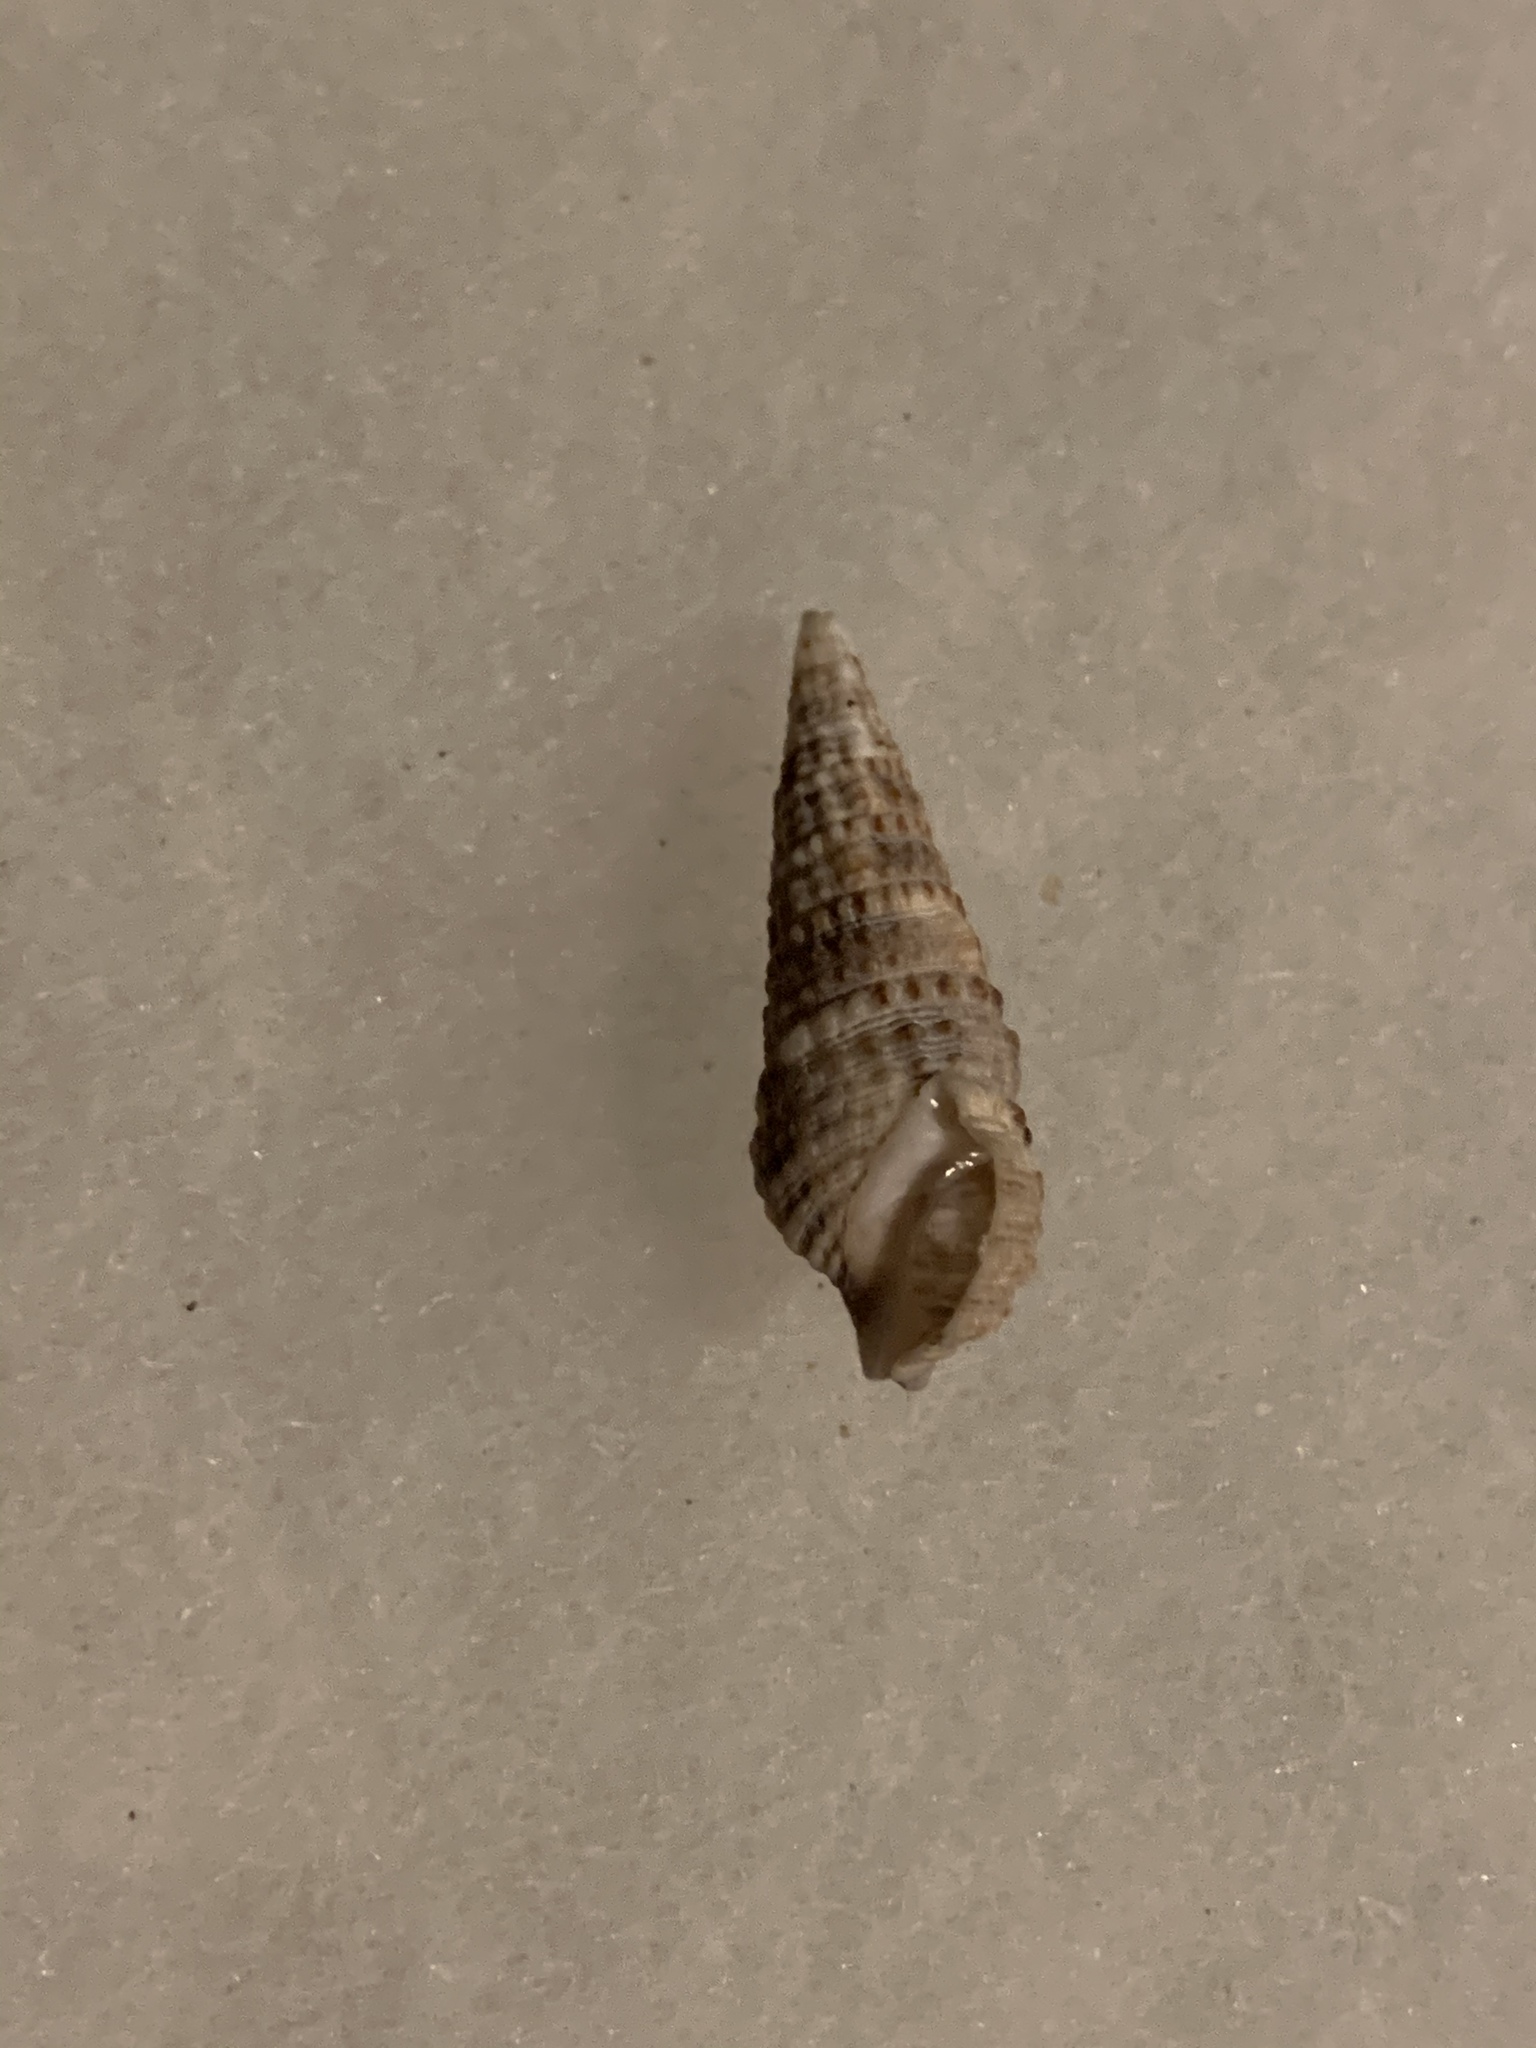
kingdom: Animalia
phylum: Mollusca
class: Gastropoda
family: Cerithiidae
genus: Cerithium
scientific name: Cerithium atratum
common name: Dark cerith
